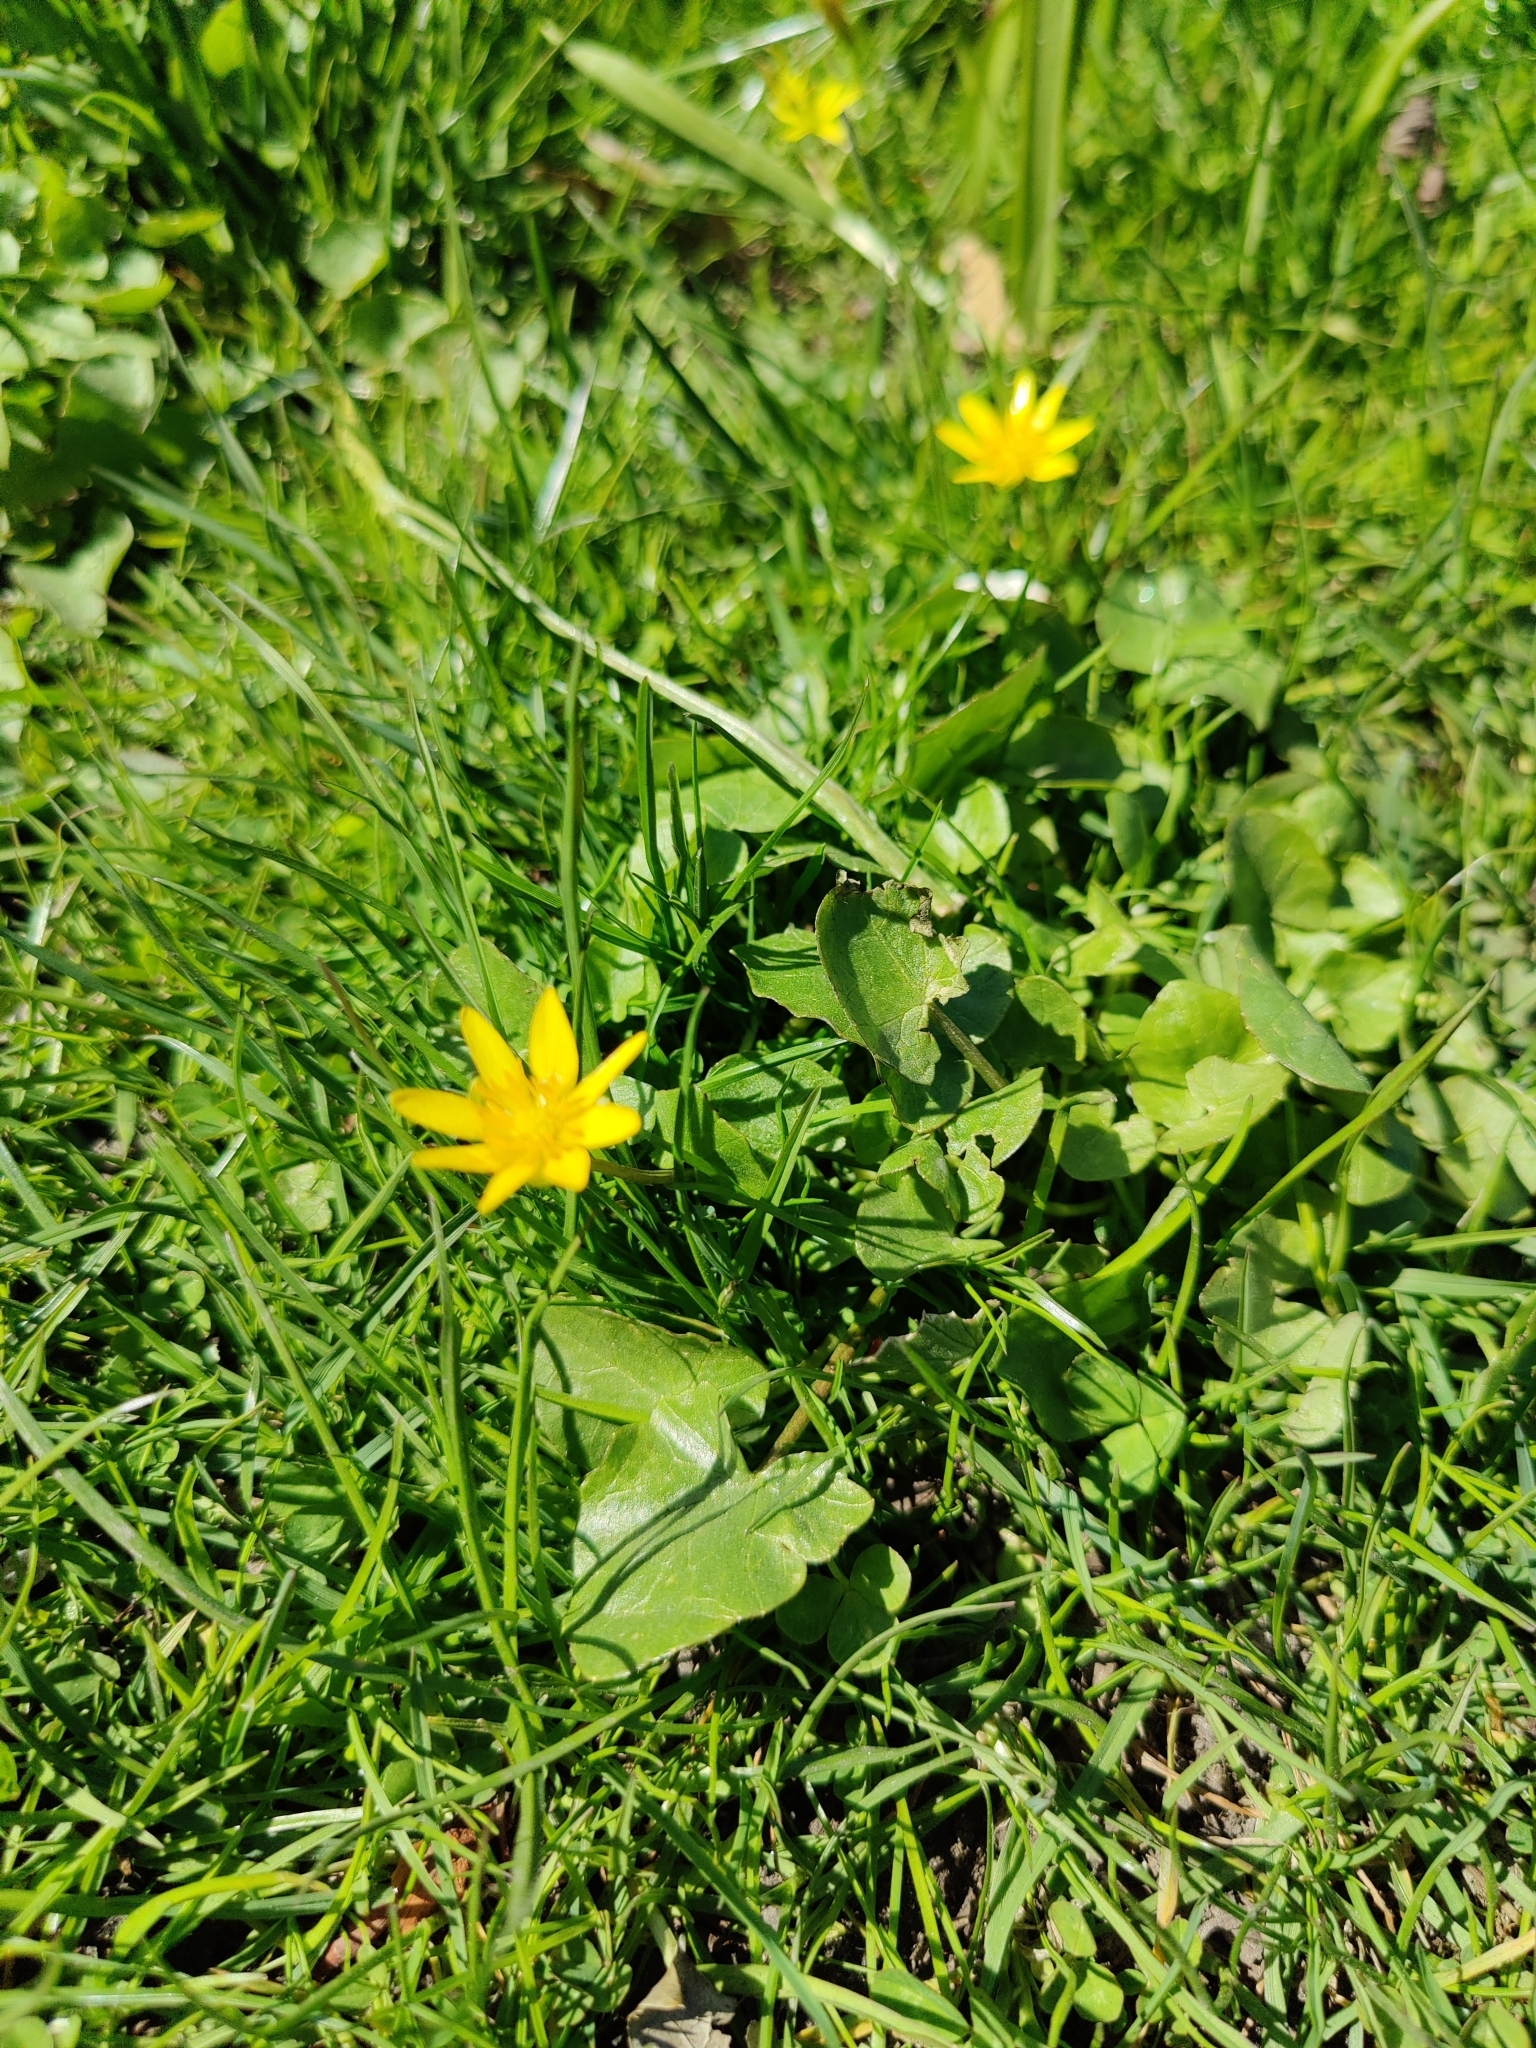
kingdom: Plantae
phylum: Tracheophyta
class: Magnoliopsida
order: Ranunculales
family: Ranunculaceae
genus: Ficaria
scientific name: Ficaria verna
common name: Lesser celandine
